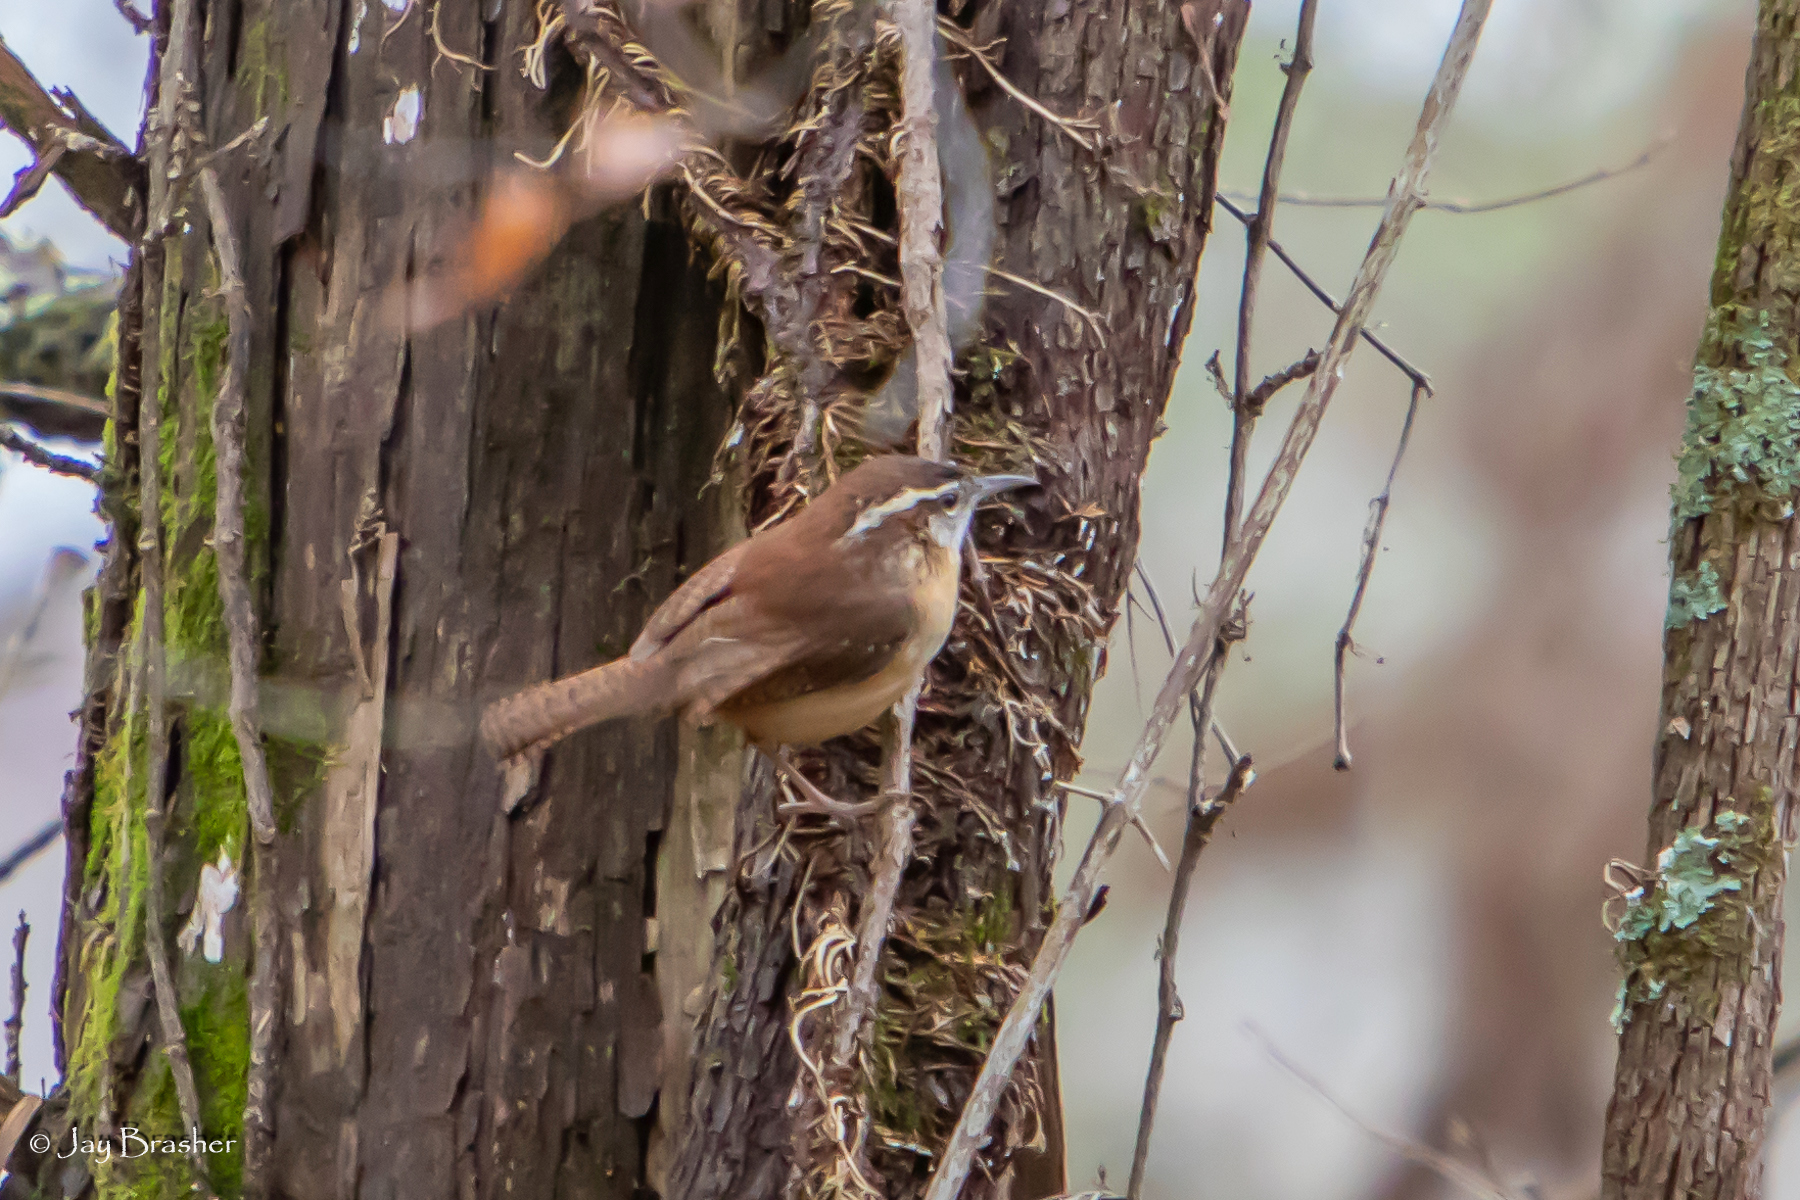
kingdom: Animalia
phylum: Chordata
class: Aves
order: Passeriformes
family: Troglodytidae
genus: Thryothorus
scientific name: Thryothorus ludovicianus
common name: Carolina wren
